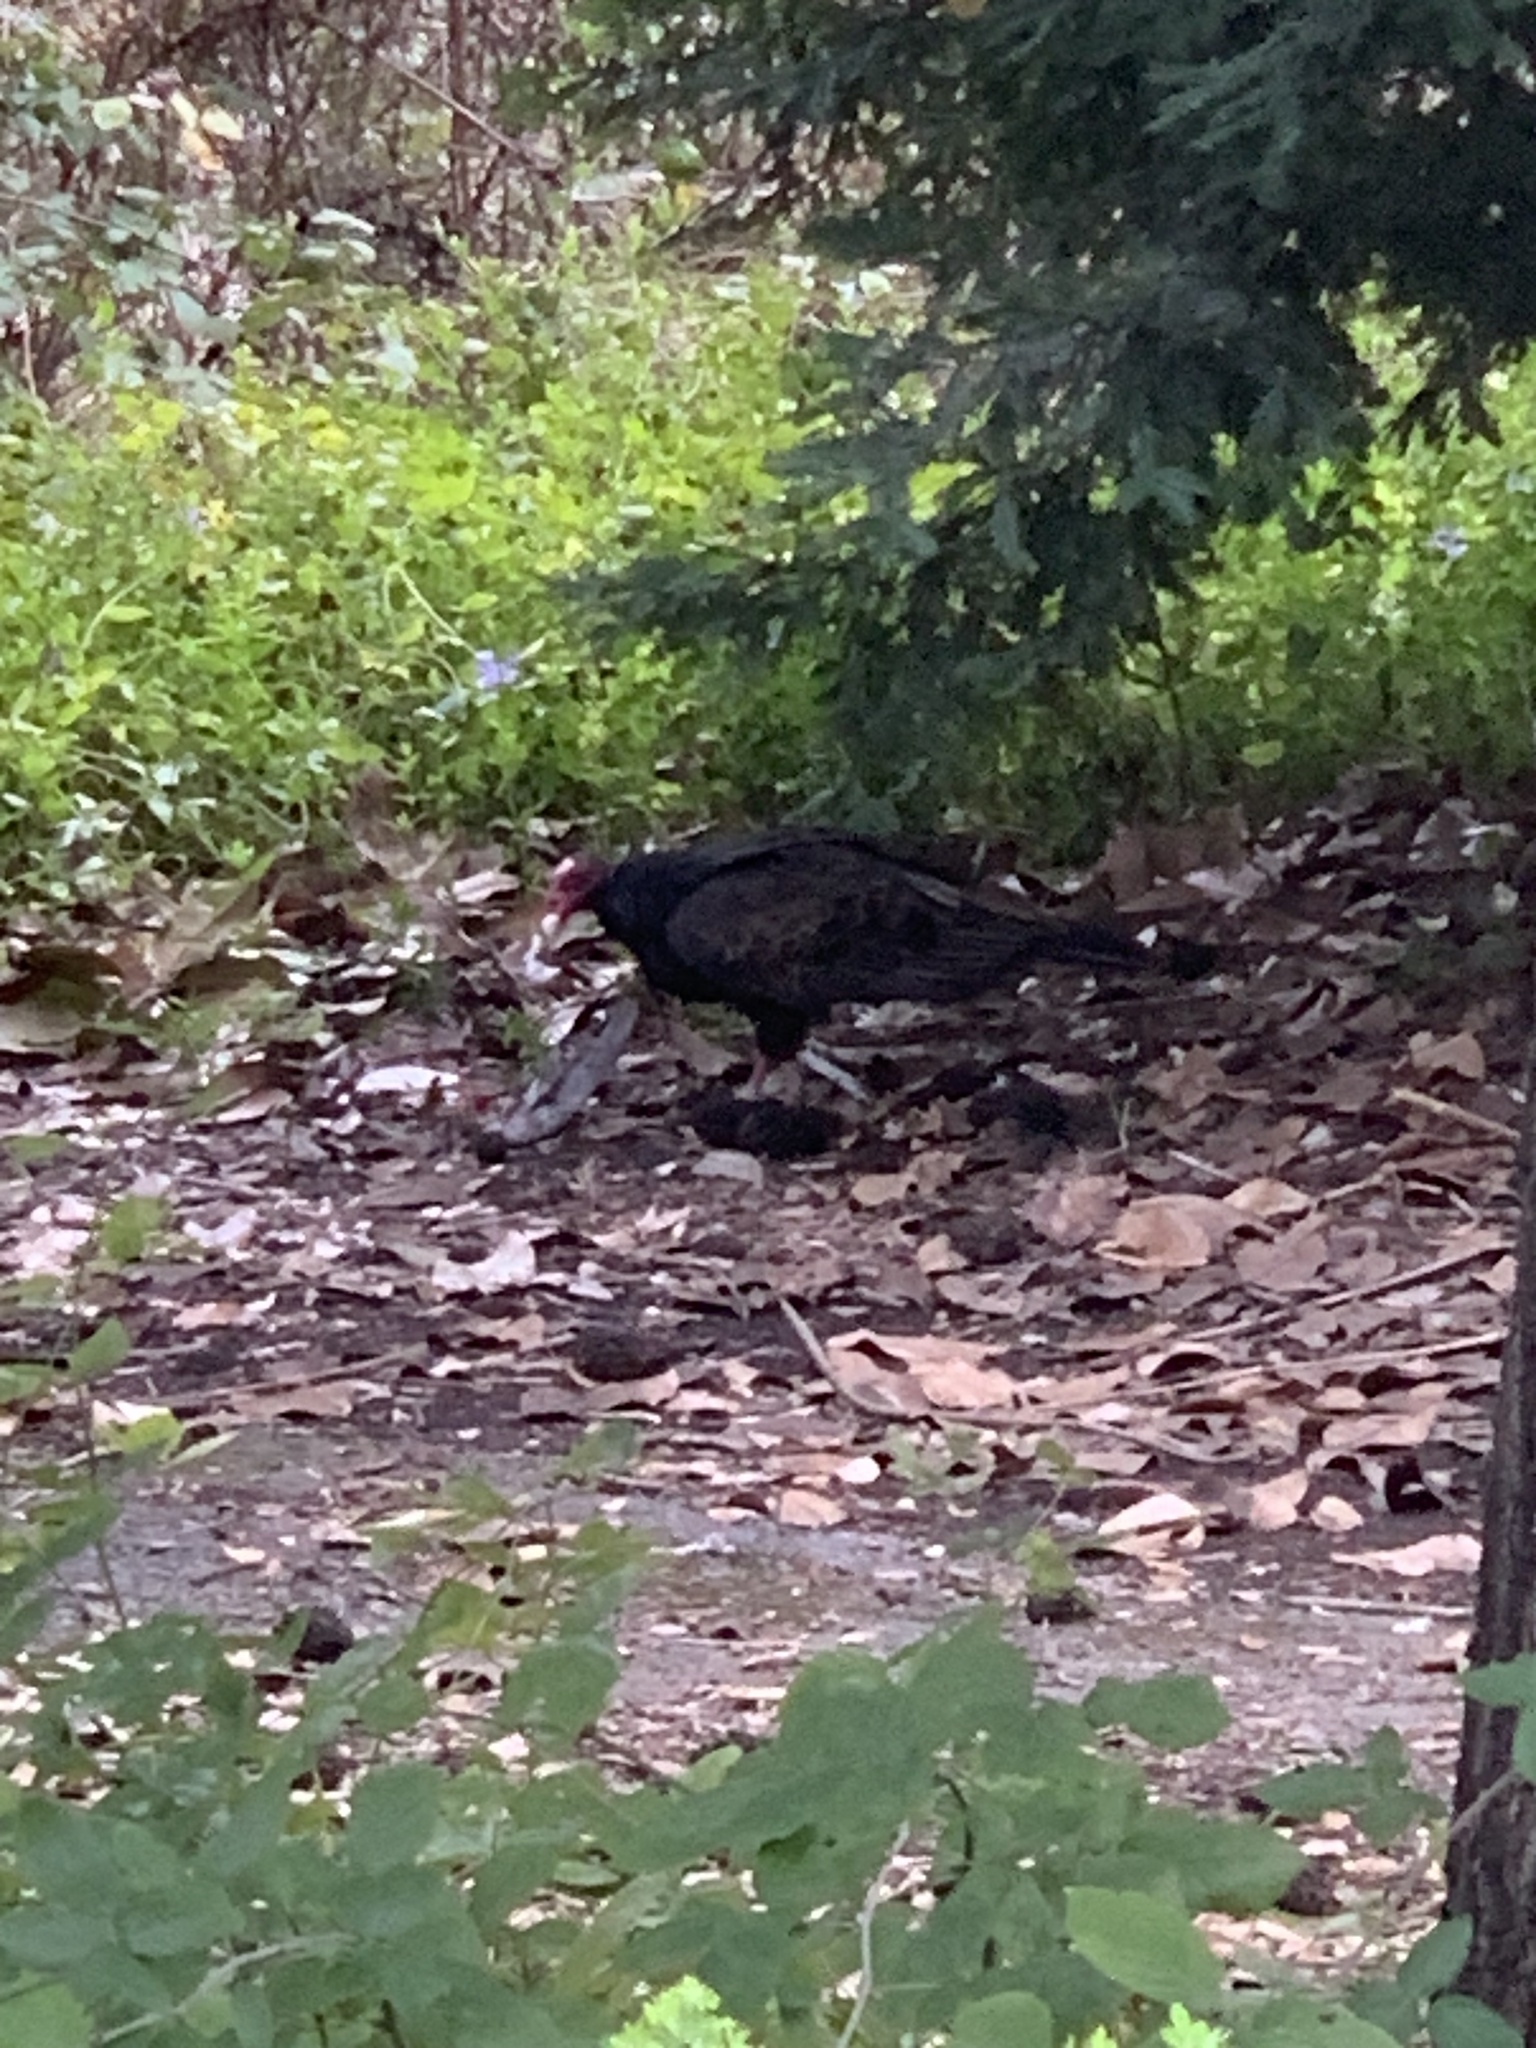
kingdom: Animalia
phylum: Chordata
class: Aves
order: Accipitriformes
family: Cathartidae
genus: Cathartes
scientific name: Cathartes aura
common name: Turkey vulture
